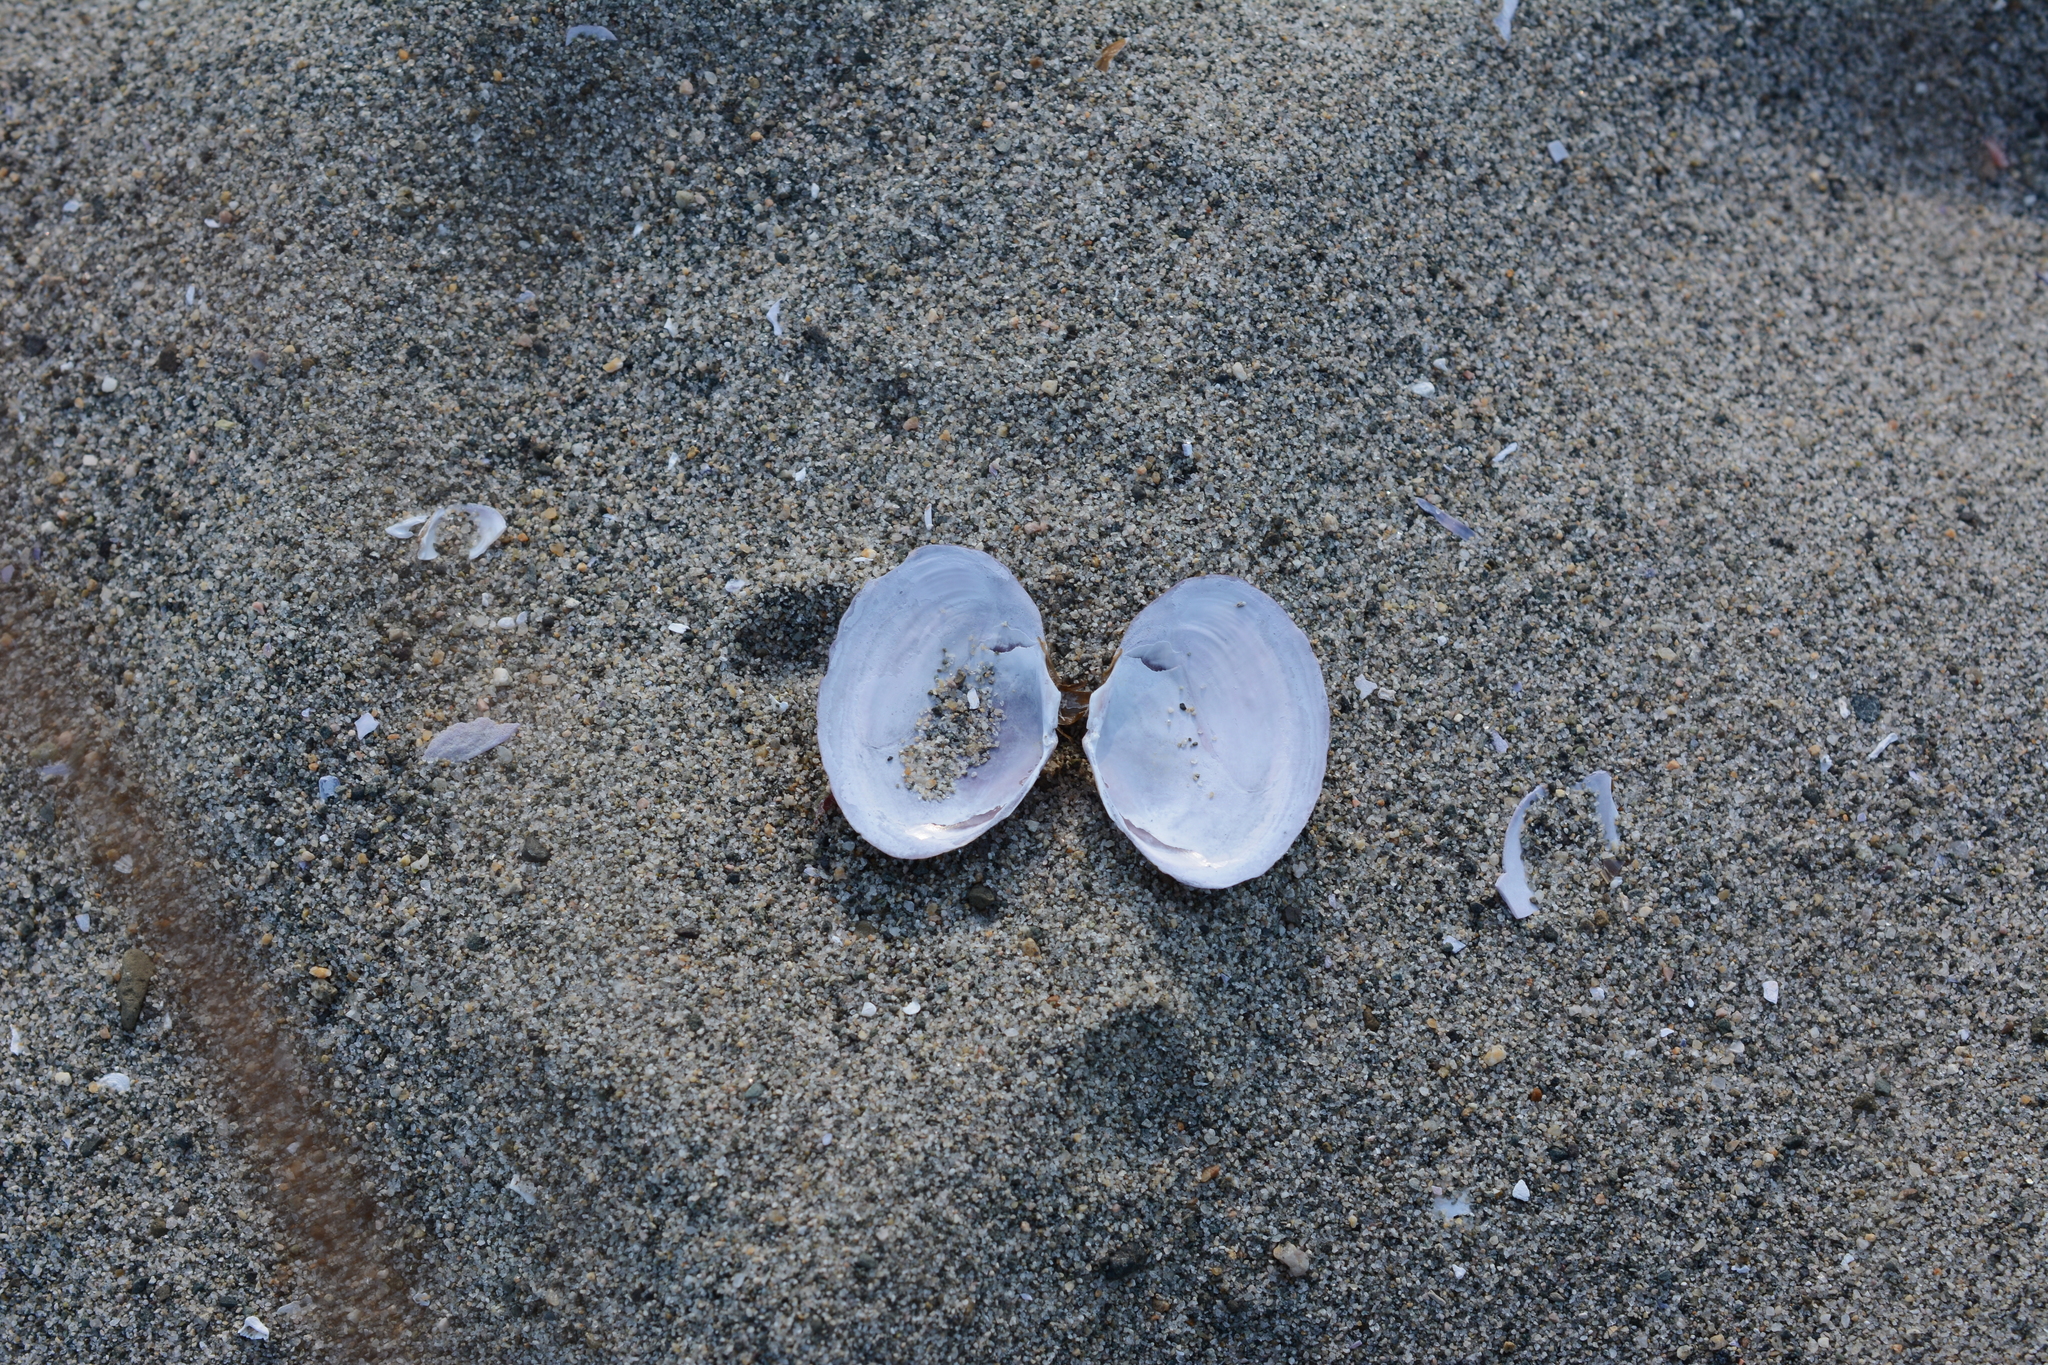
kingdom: Animalia
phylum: Mollusca
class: Bivalvia
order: Cardiida
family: Psammobiidae
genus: Nuttallia
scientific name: Nuttallia obscurata
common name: Purple mahogany-clam
